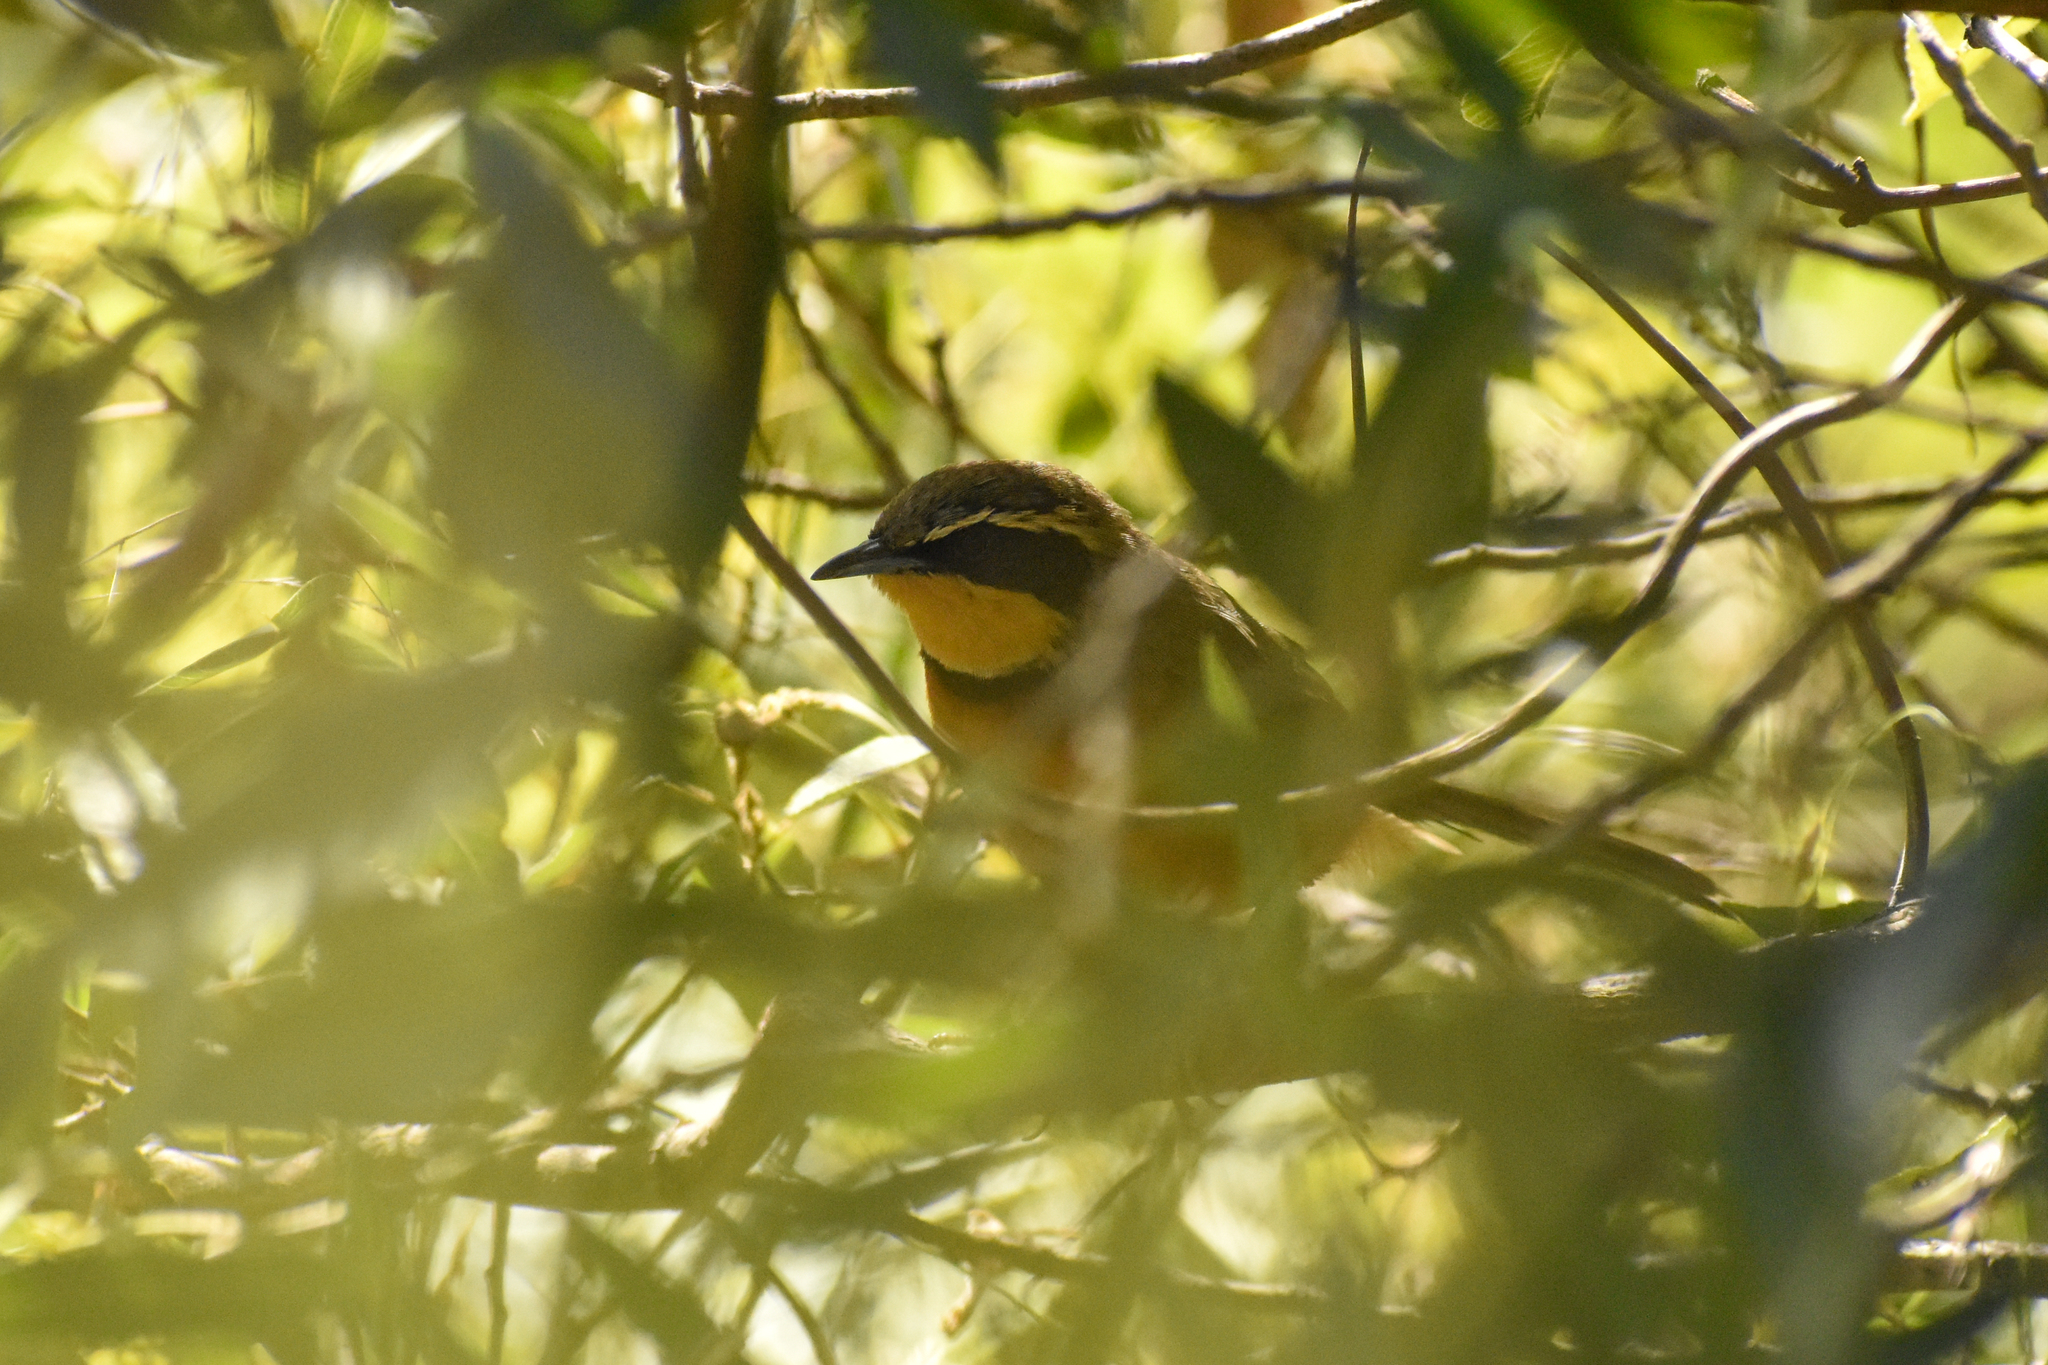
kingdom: Animalia
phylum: Chordata
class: Aves
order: Passeriformes
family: Melanopareiidae
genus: Melanopareia
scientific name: Melanopareia maximiliani
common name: Olive-crowned crescentchest
